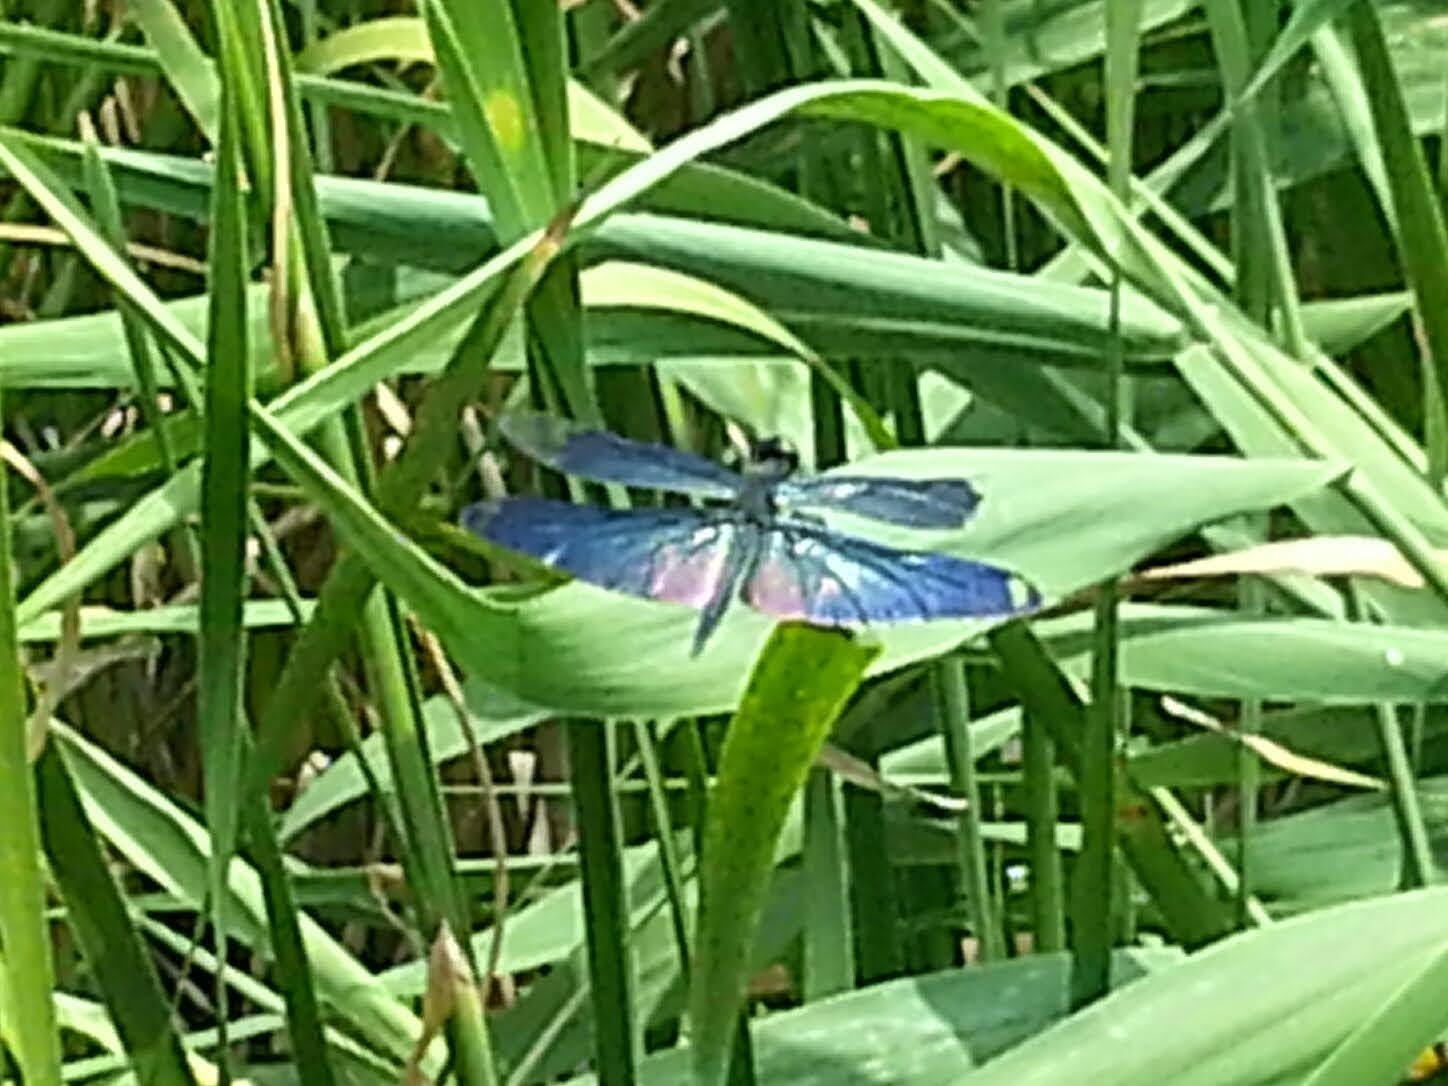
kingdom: Animalia
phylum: Arthropoda
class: Insecta
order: Odonata
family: Libellulidae
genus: Rhyothemis
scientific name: Rhyothemis fuliginosa
